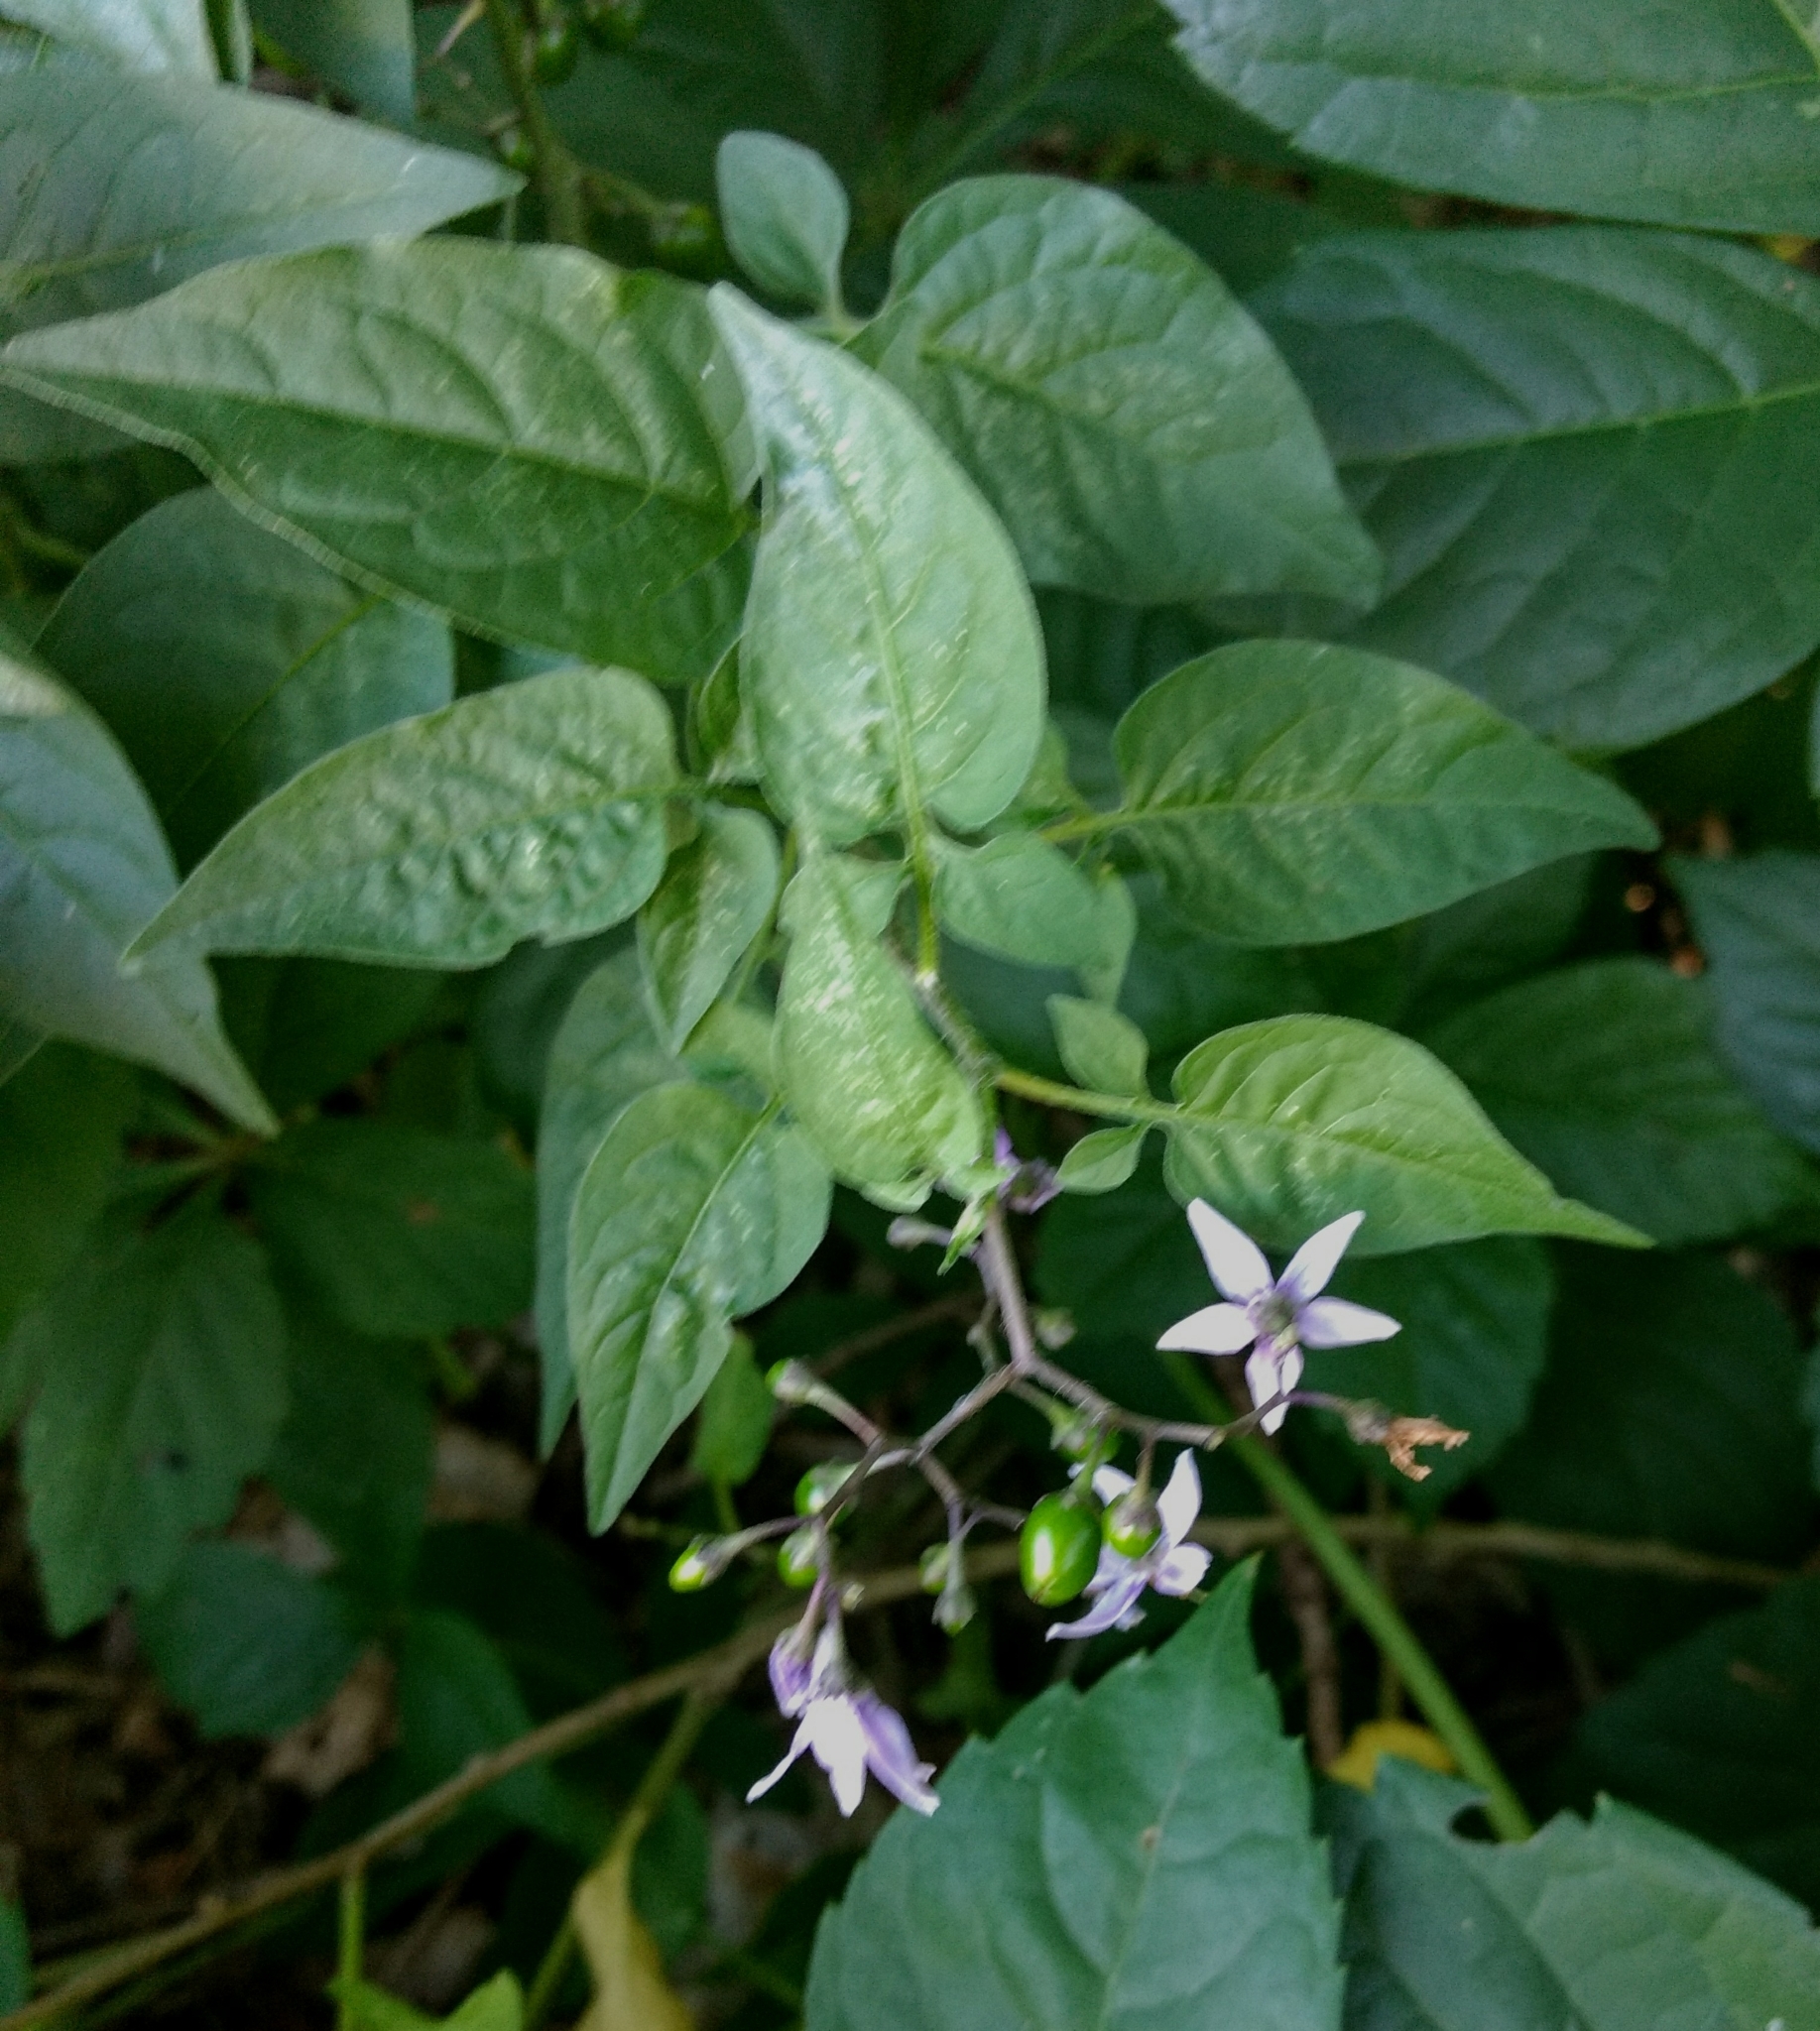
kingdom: Plantae
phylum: Tracheophyta
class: Magnoliopsida
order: Solanales
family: Solanaceae
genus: Solanum
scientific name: Solanum dulcamara
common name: Climbing nightshade
